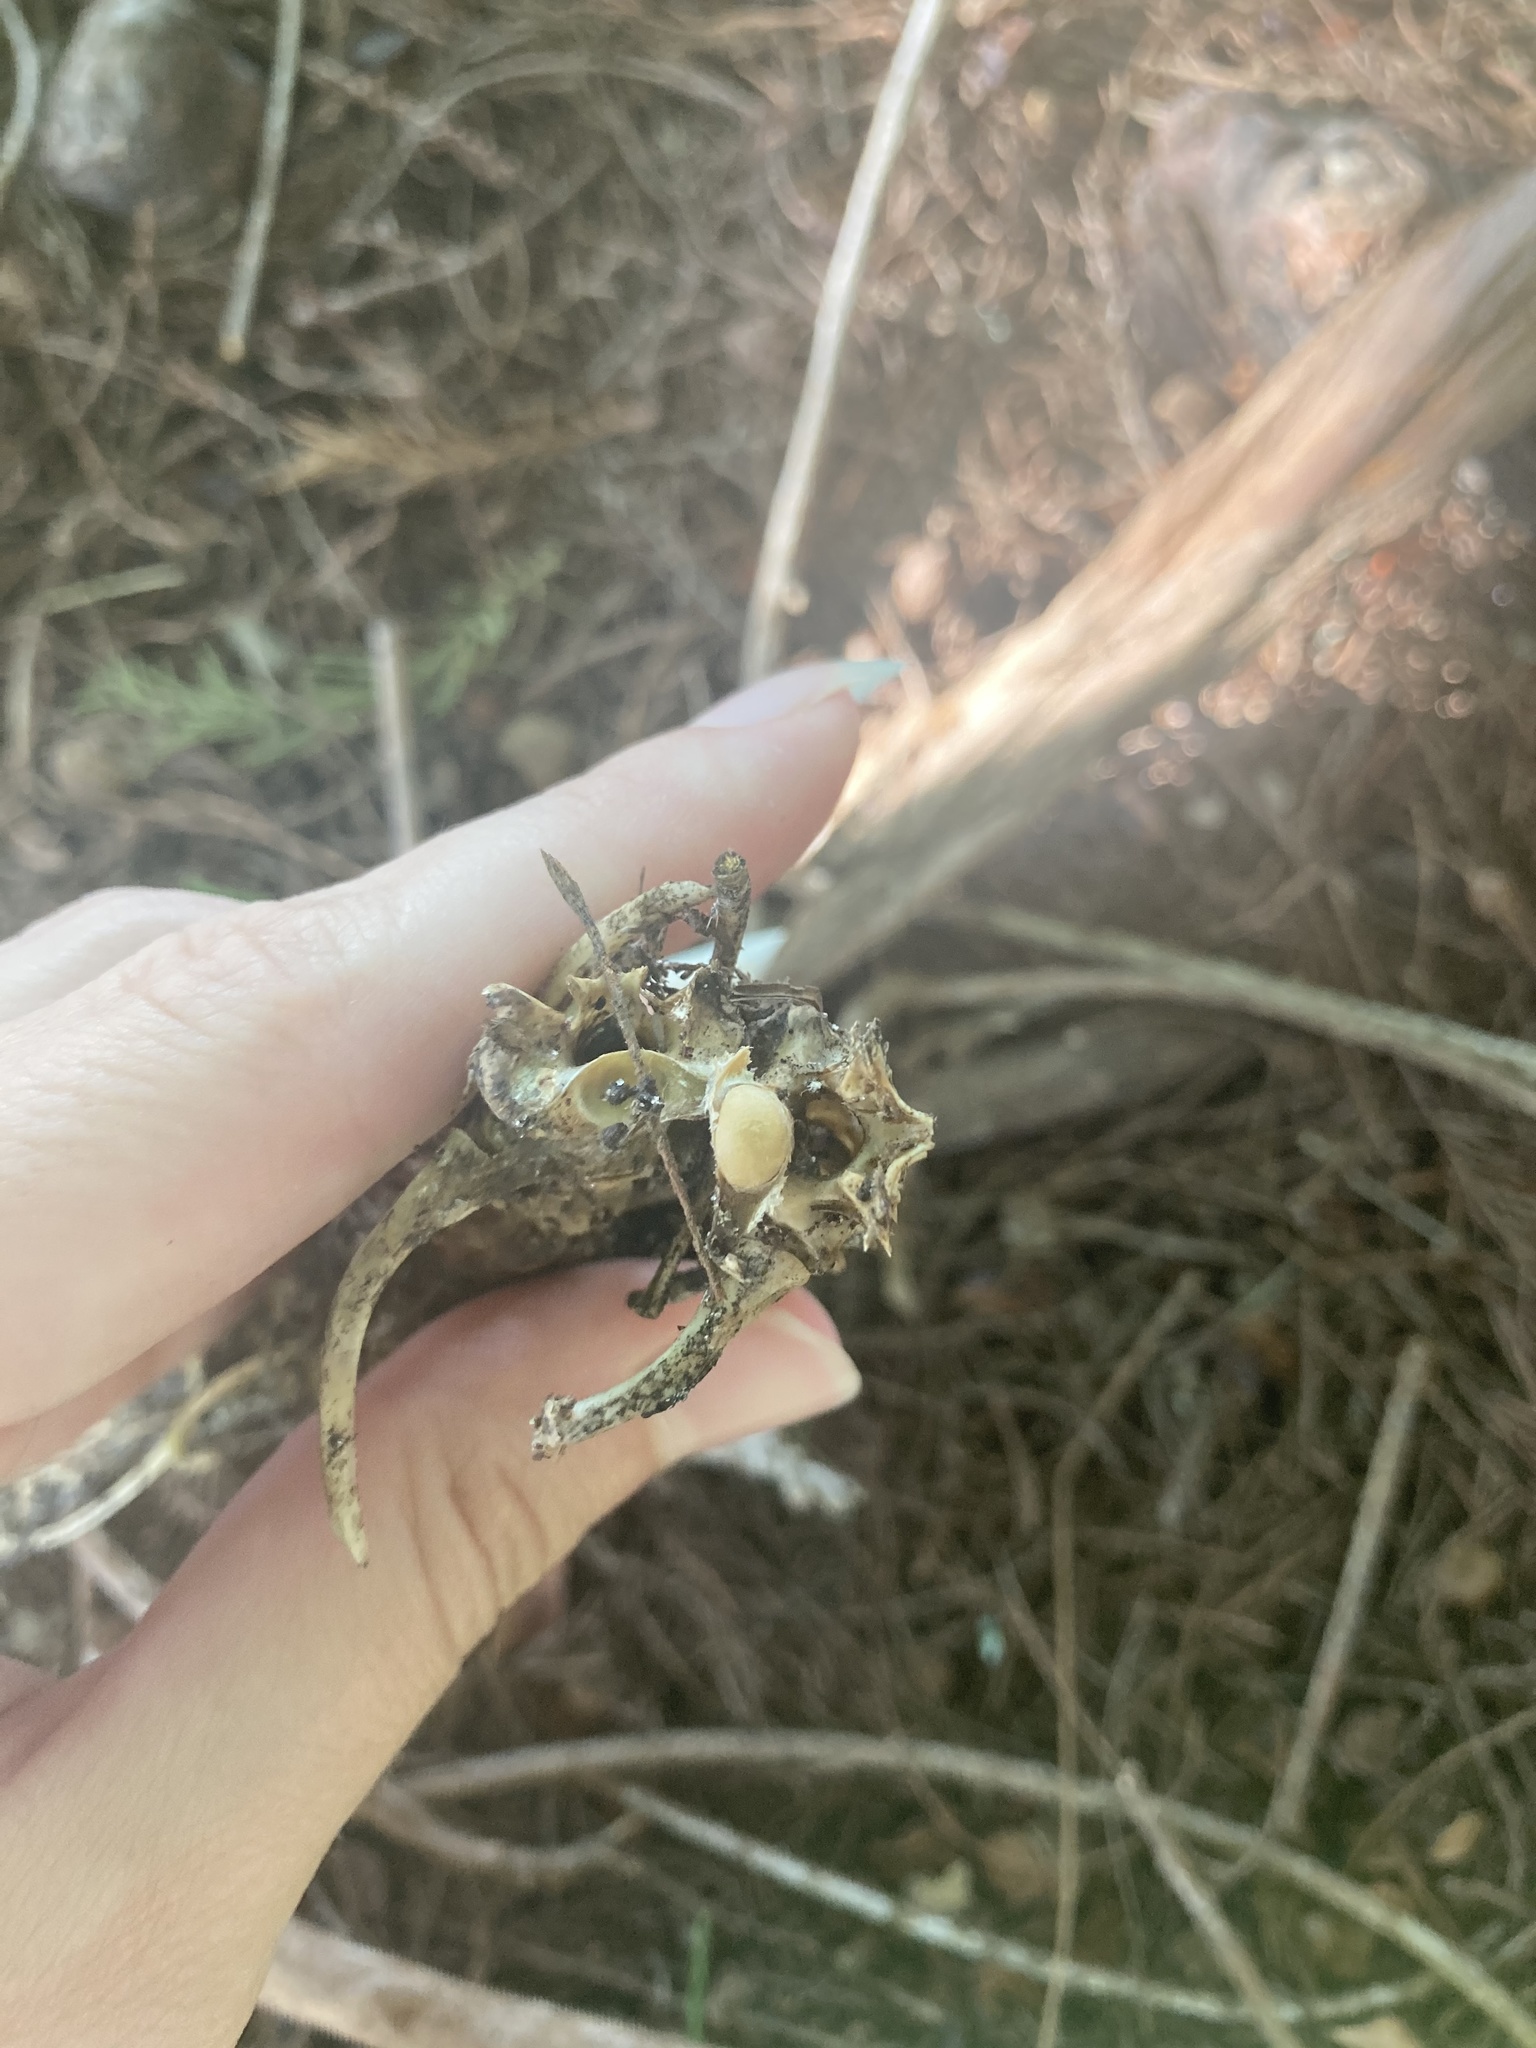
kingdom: Animalia
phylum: Chordata
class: Squamata
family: Iguanidae
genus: Iguana
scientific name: Iguana iguana
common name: Green iguana
